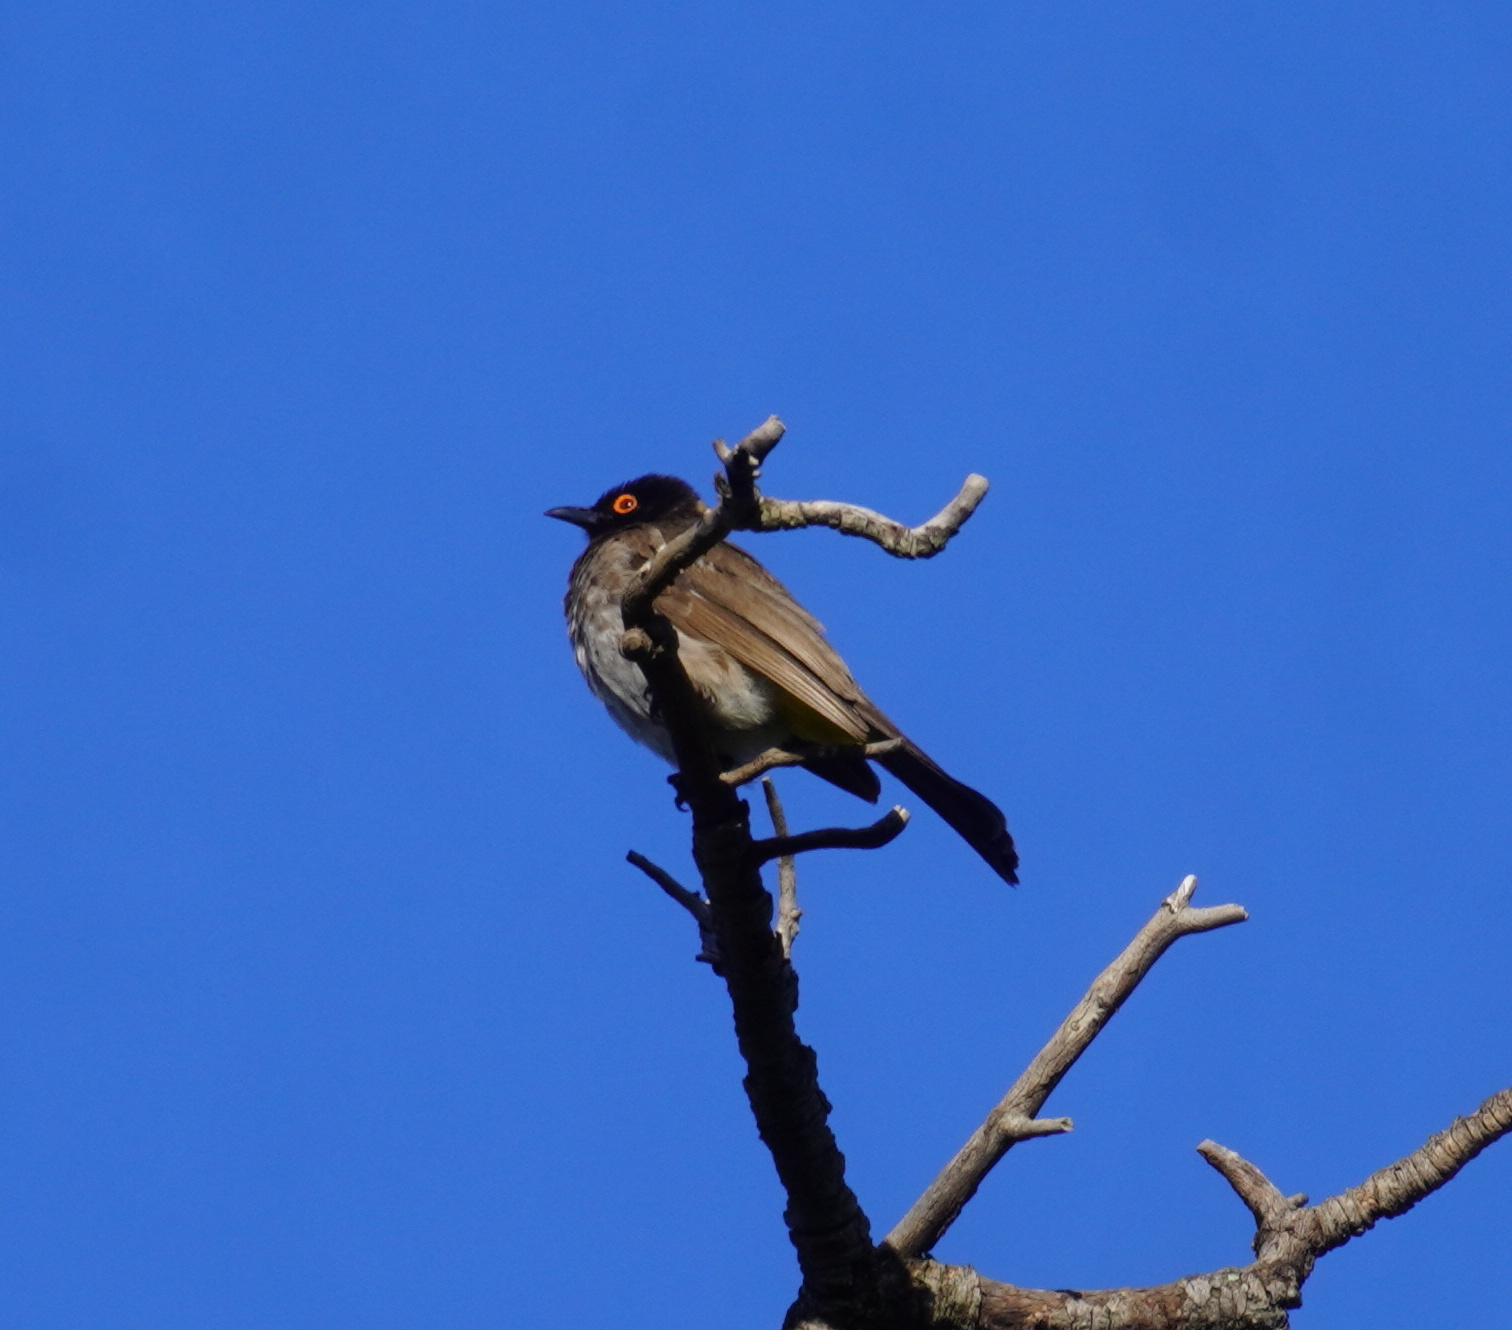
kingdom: Animalia
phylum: Chordata
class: Aves
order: Passeriformes
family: Pycnonotidae
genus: Pycnonotus
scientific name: Pycnonotus nigricans
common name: African red-eyed bulbul
